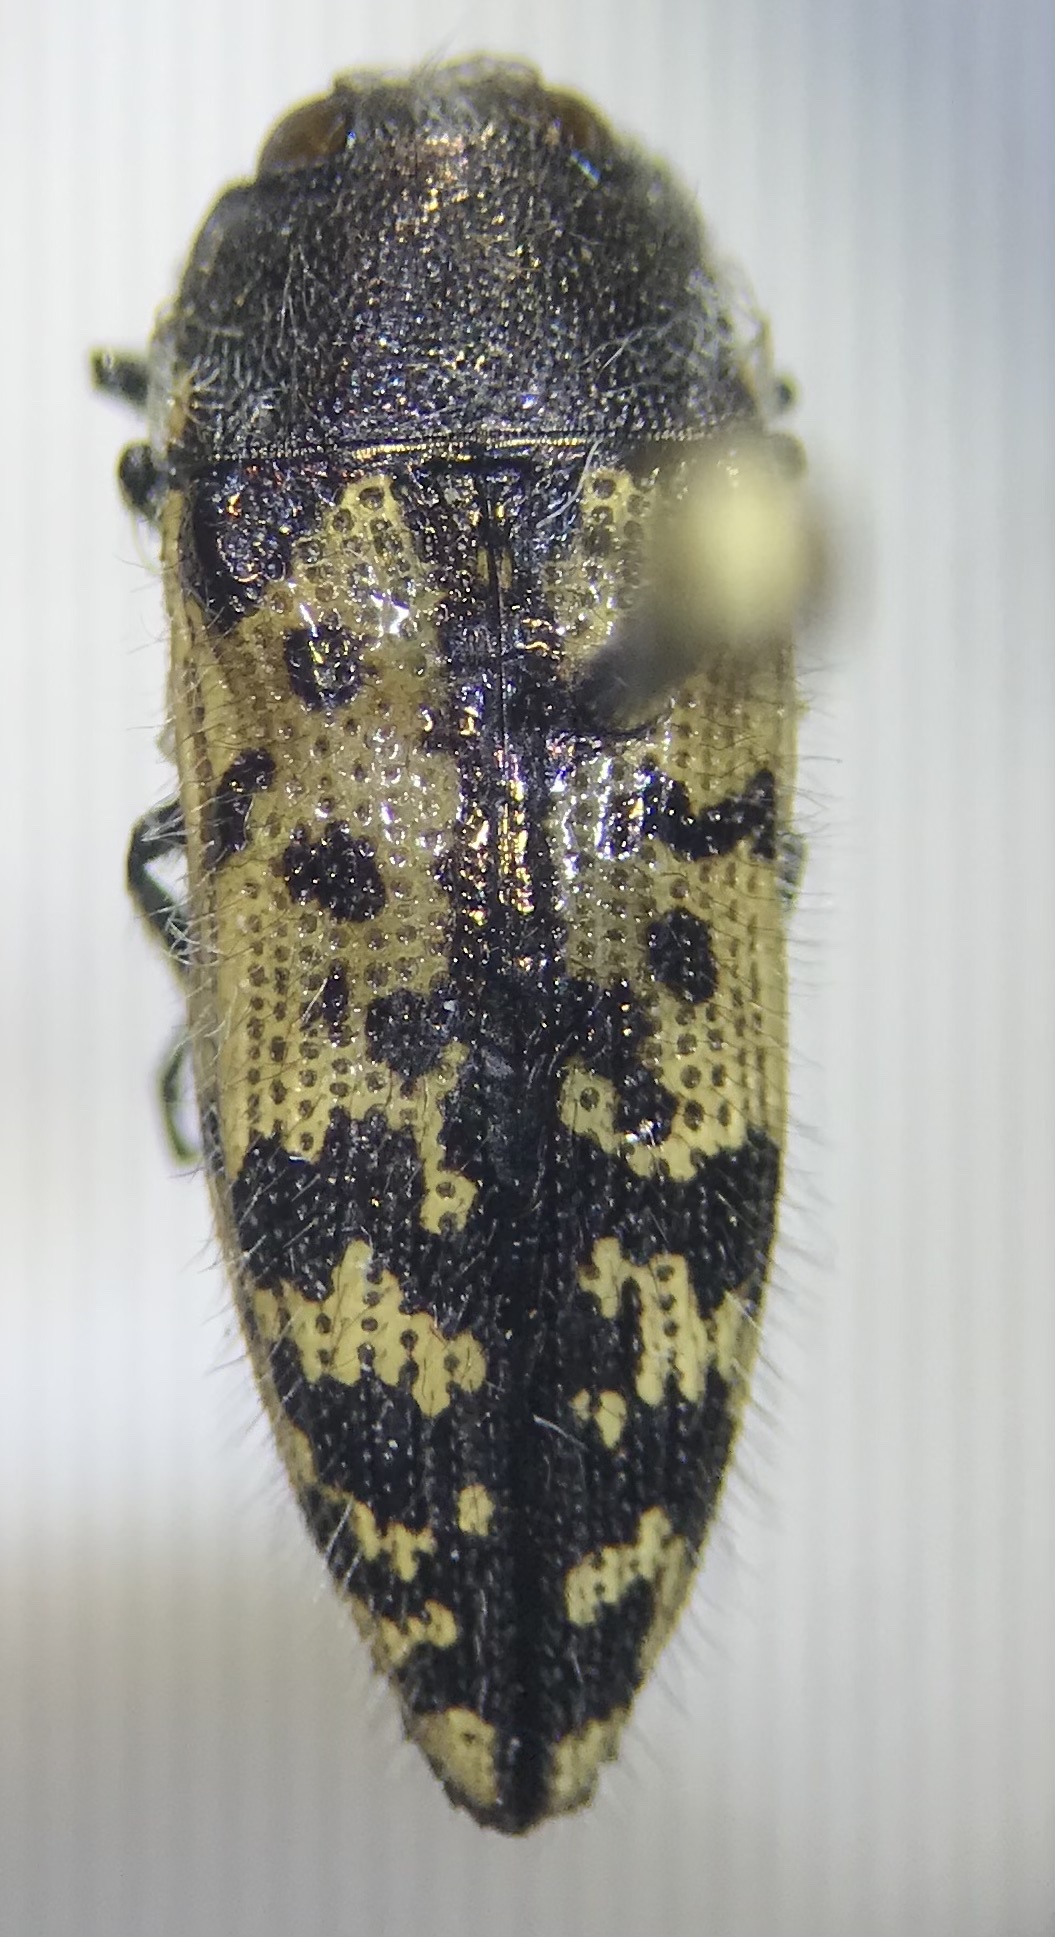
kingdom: Animalia
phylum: Arthropoda
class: Insecta
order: Coleoptera
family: Buprestidae
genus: Acmaeodera
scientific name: Acmaeodera hepburnii
